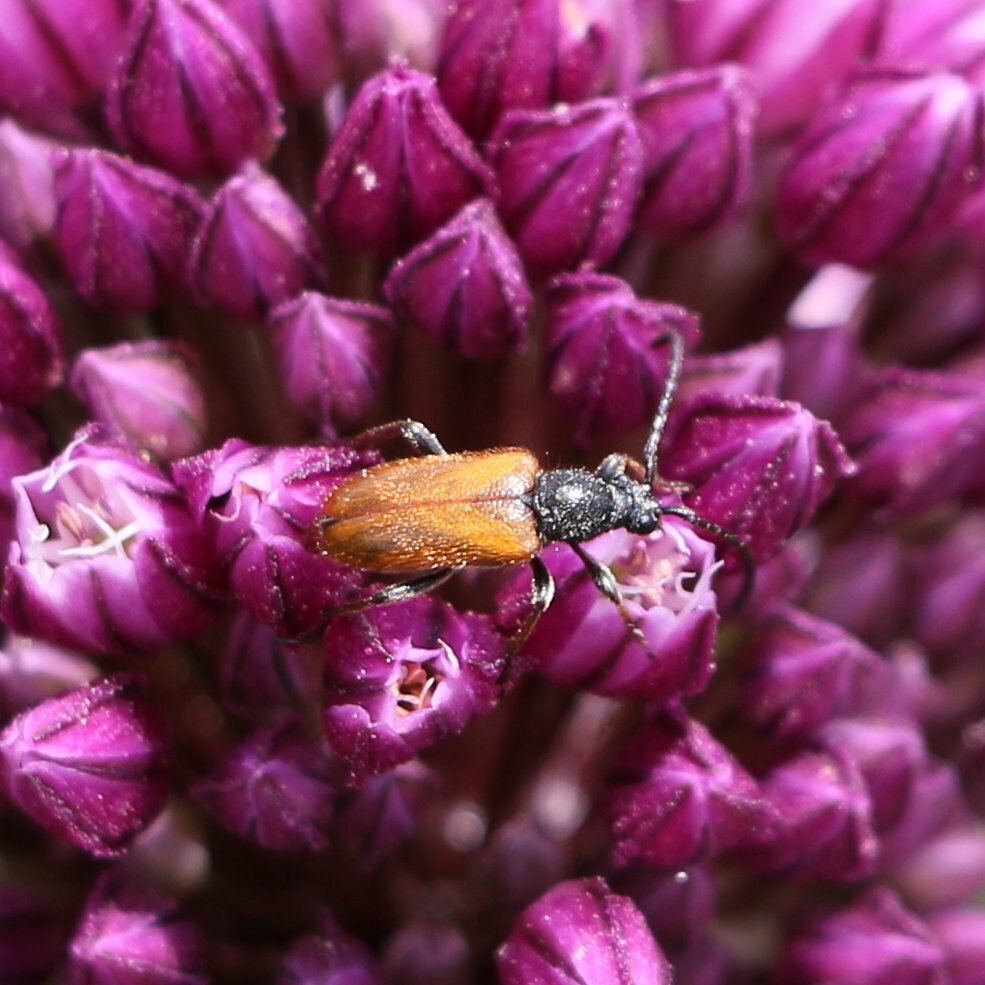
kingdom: Animalia
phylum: Arthropoda
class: Insecta
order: Coleoptera
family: Cerambycidae
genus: Pseudovadonia
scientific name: Pseudovadonia livida
